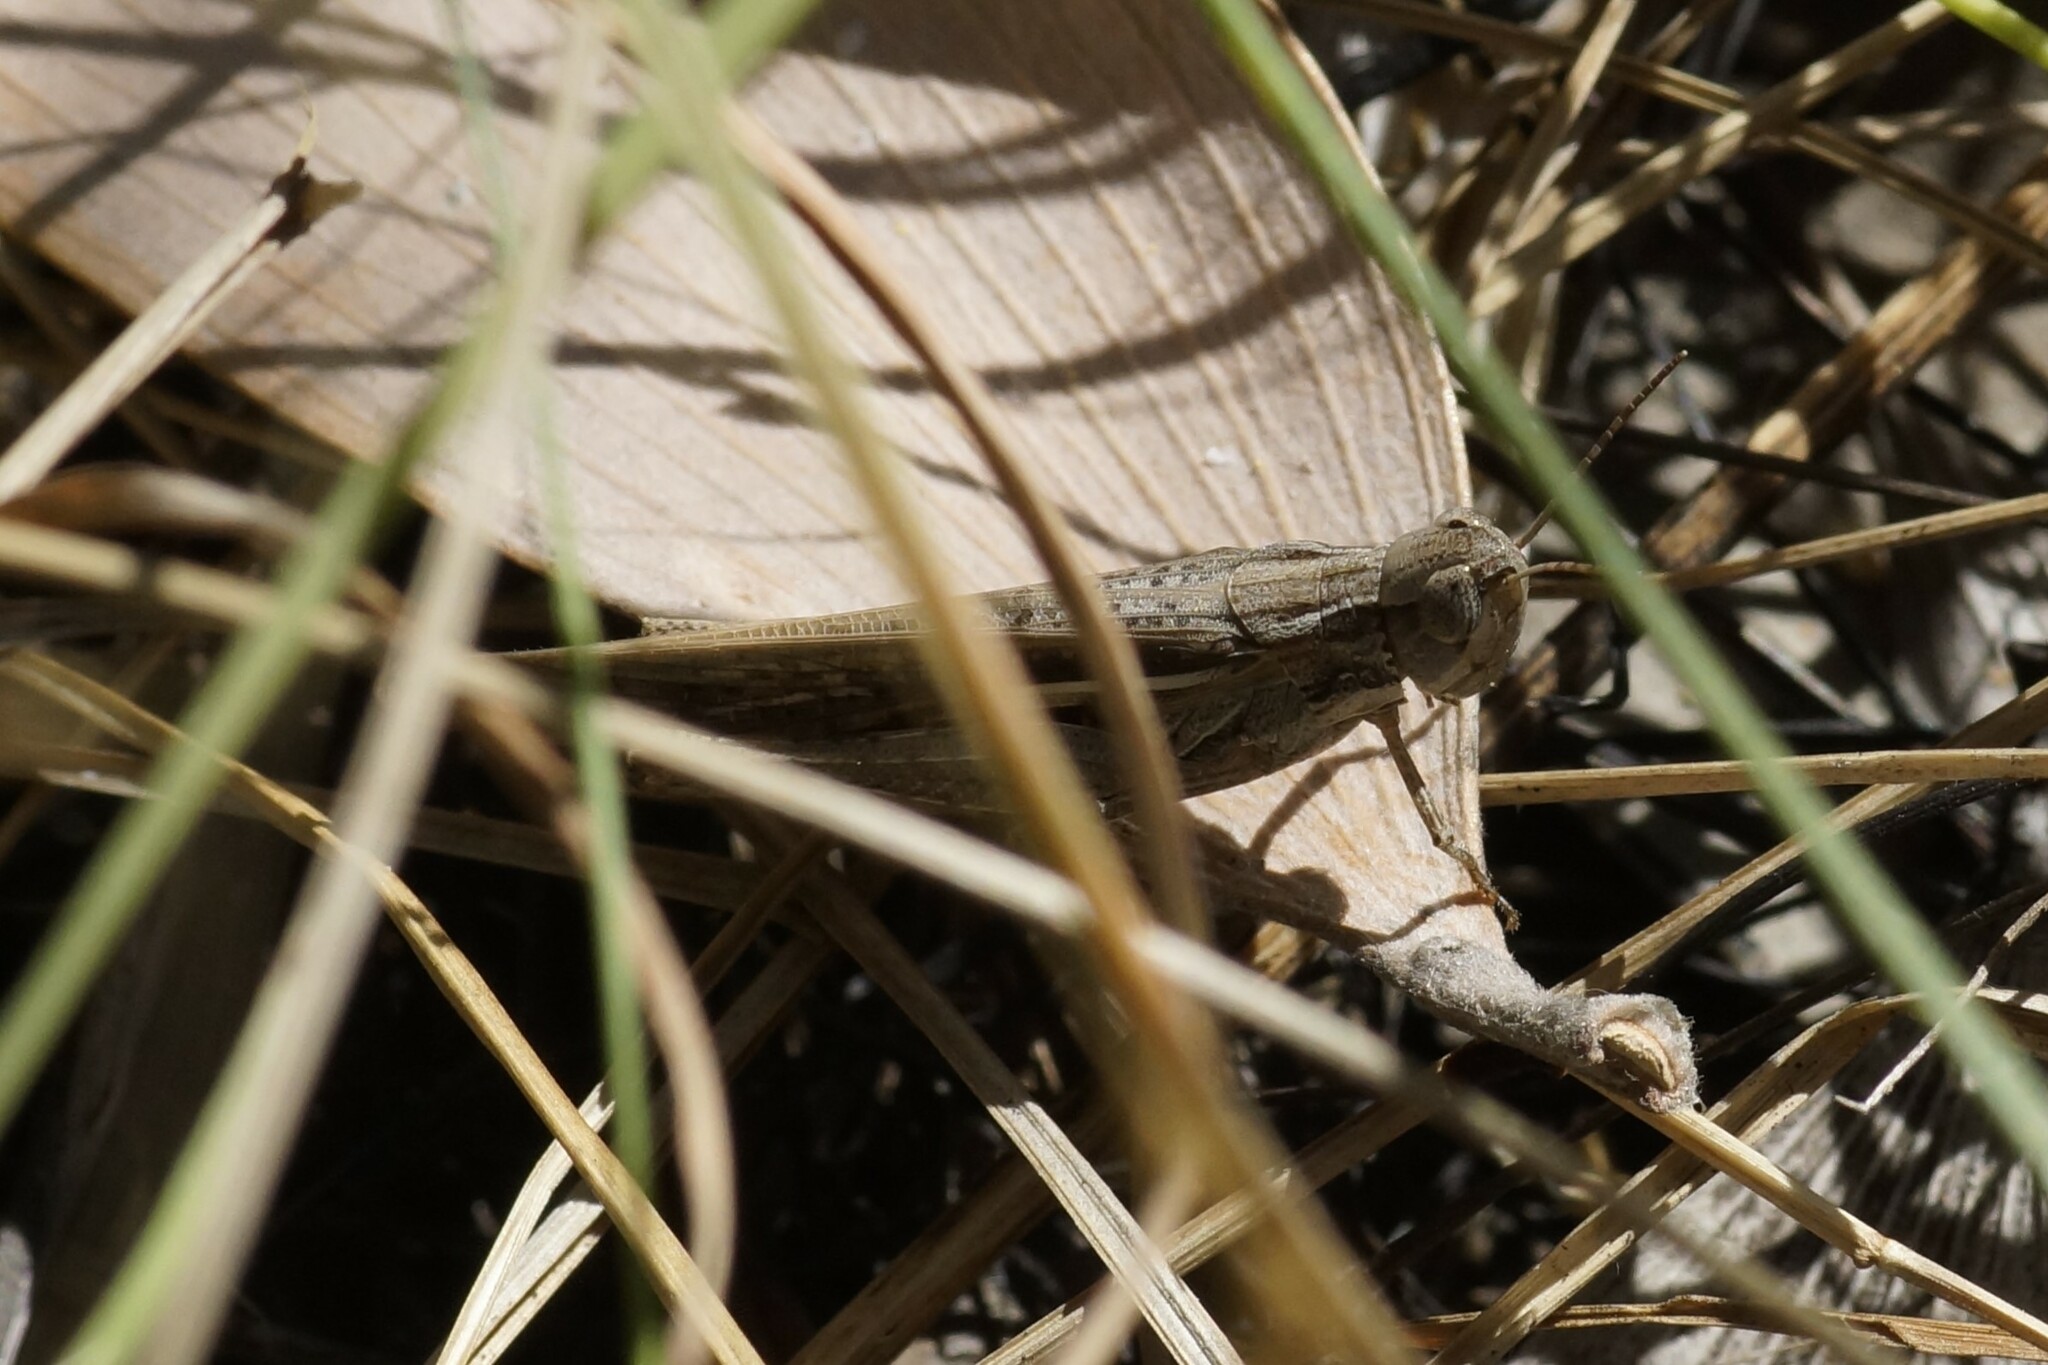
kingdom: Animalia
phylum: Arthropoda
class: Insecta
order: Orthoptera
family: Acrididae
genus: Aiolopus
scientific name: Aiolopus thalassinus
